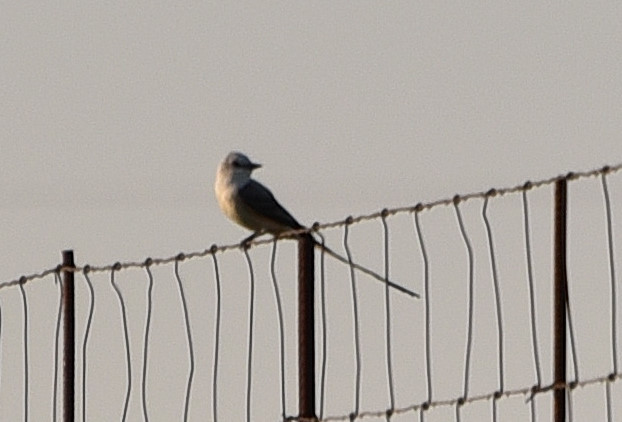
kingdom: Animalia
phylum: Chordata
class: Aves
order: Passeriformes
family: Tyrannidae
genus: Tyrannus
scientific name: Tyrannus forficatus
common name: Scissor-tailed flycatcher
